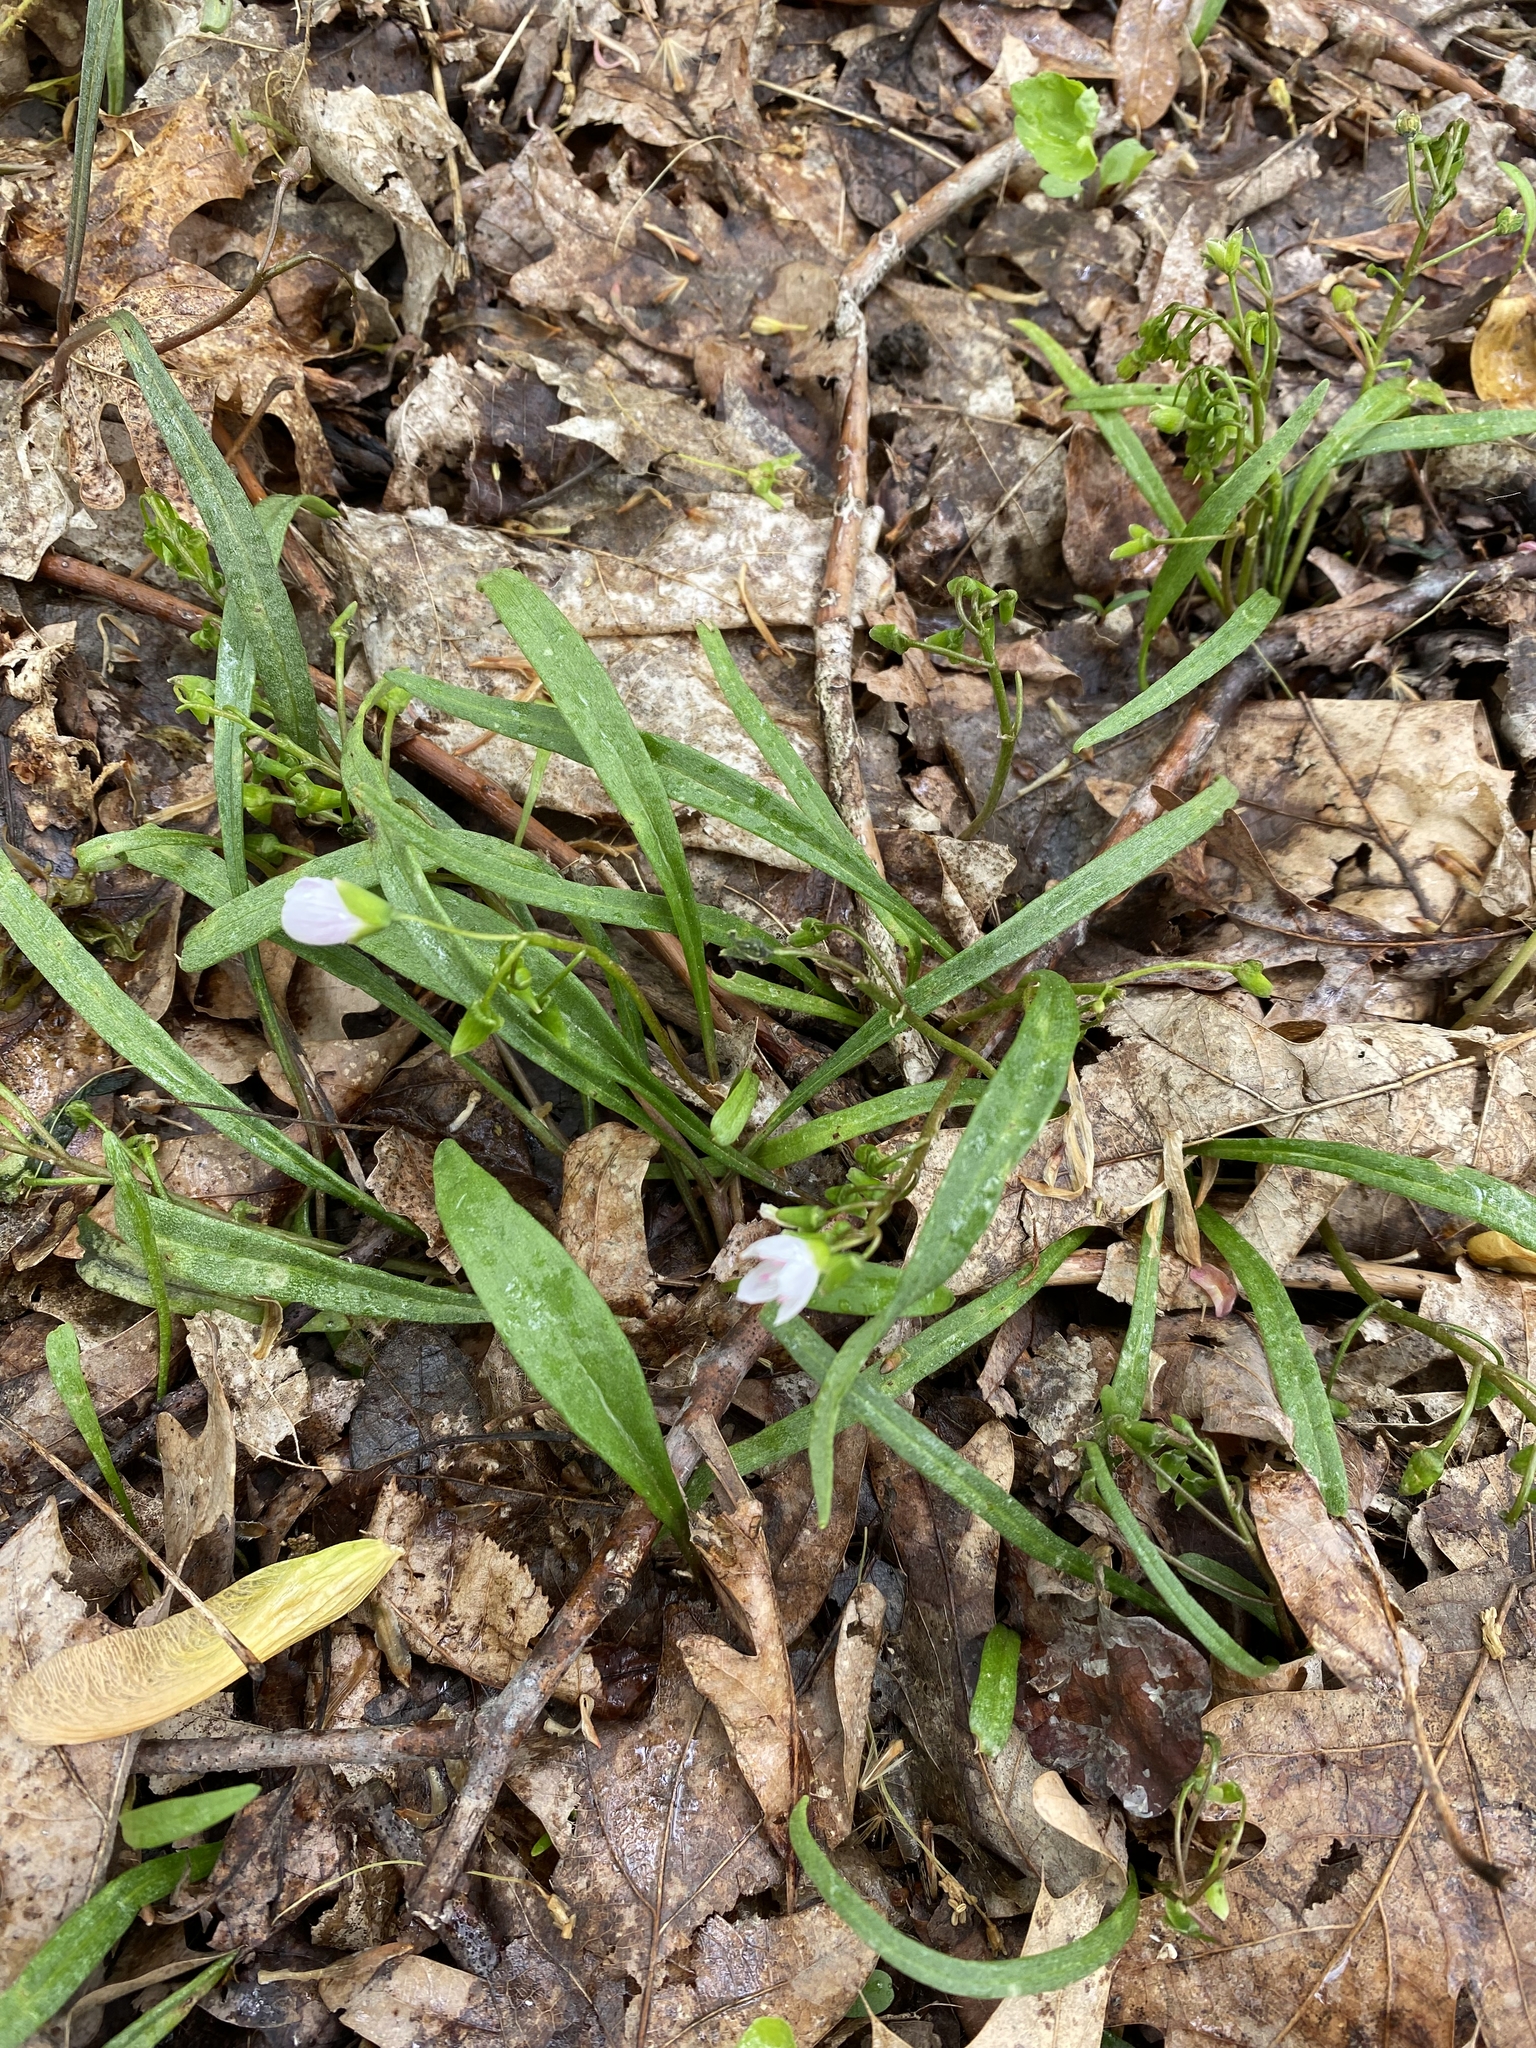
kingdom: Plantae
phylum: Tracheophyta
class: Magnoliopsida
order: Caryophyllales
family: Montiaceae
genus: Claytonia
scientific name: Claytonia virginica
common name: Virginia springbeauty
